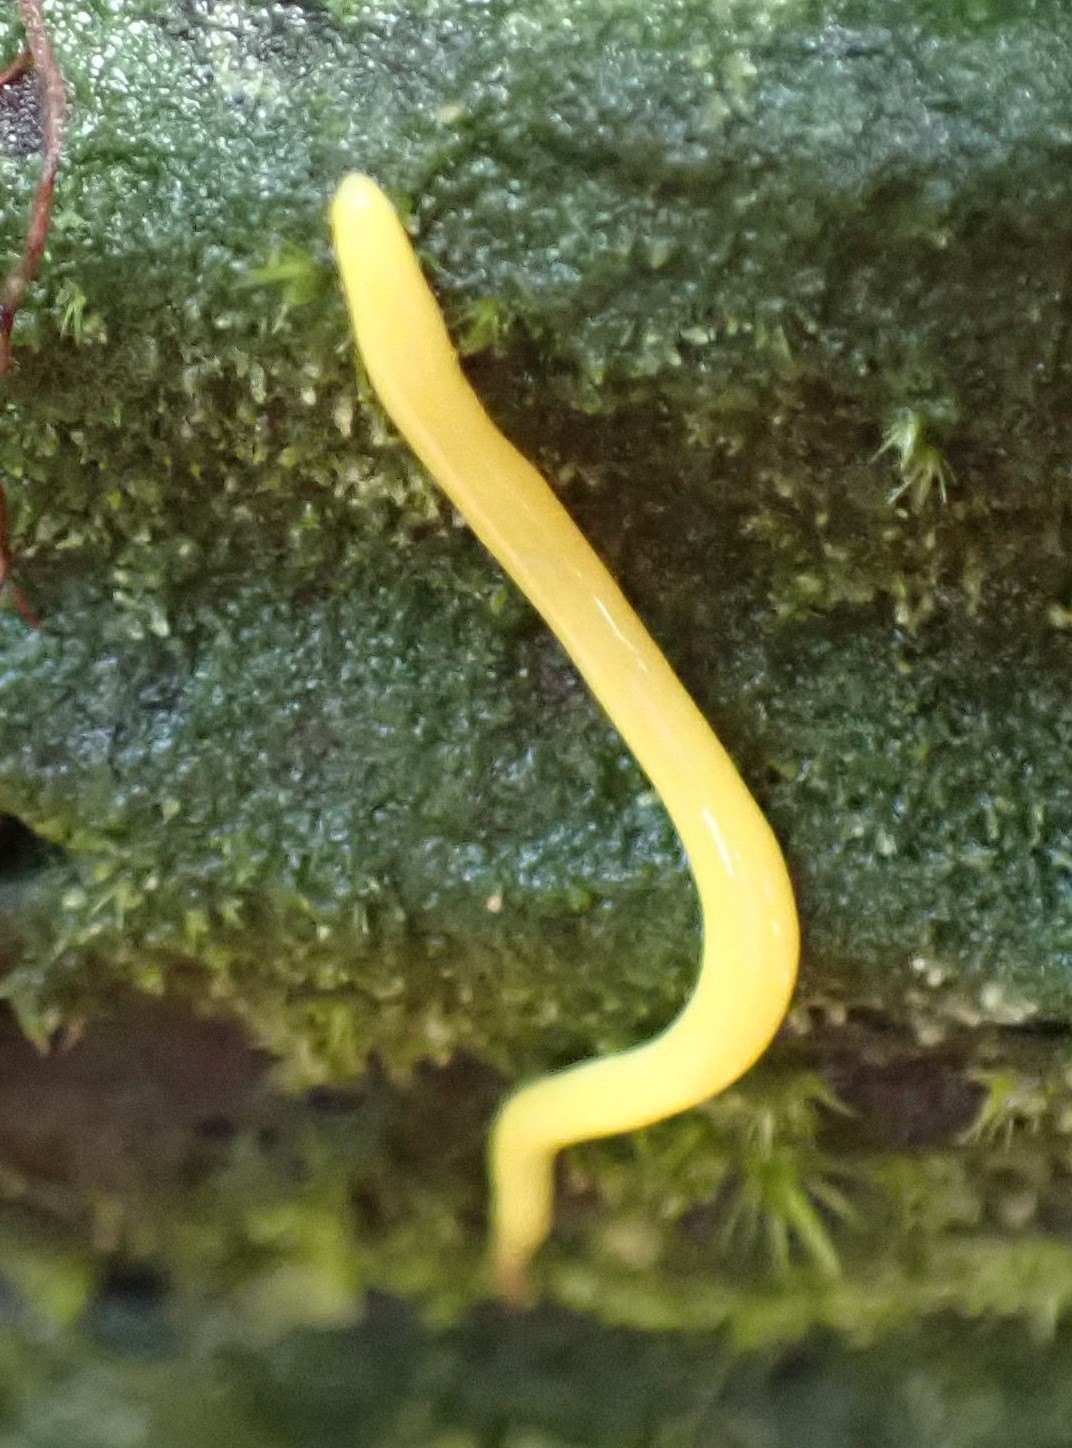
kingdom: Animalia
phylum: Platyhelminthes
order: Tricladida
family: Geoplanidae
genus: Fletchamia
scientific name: Fletchamia sugdeni
